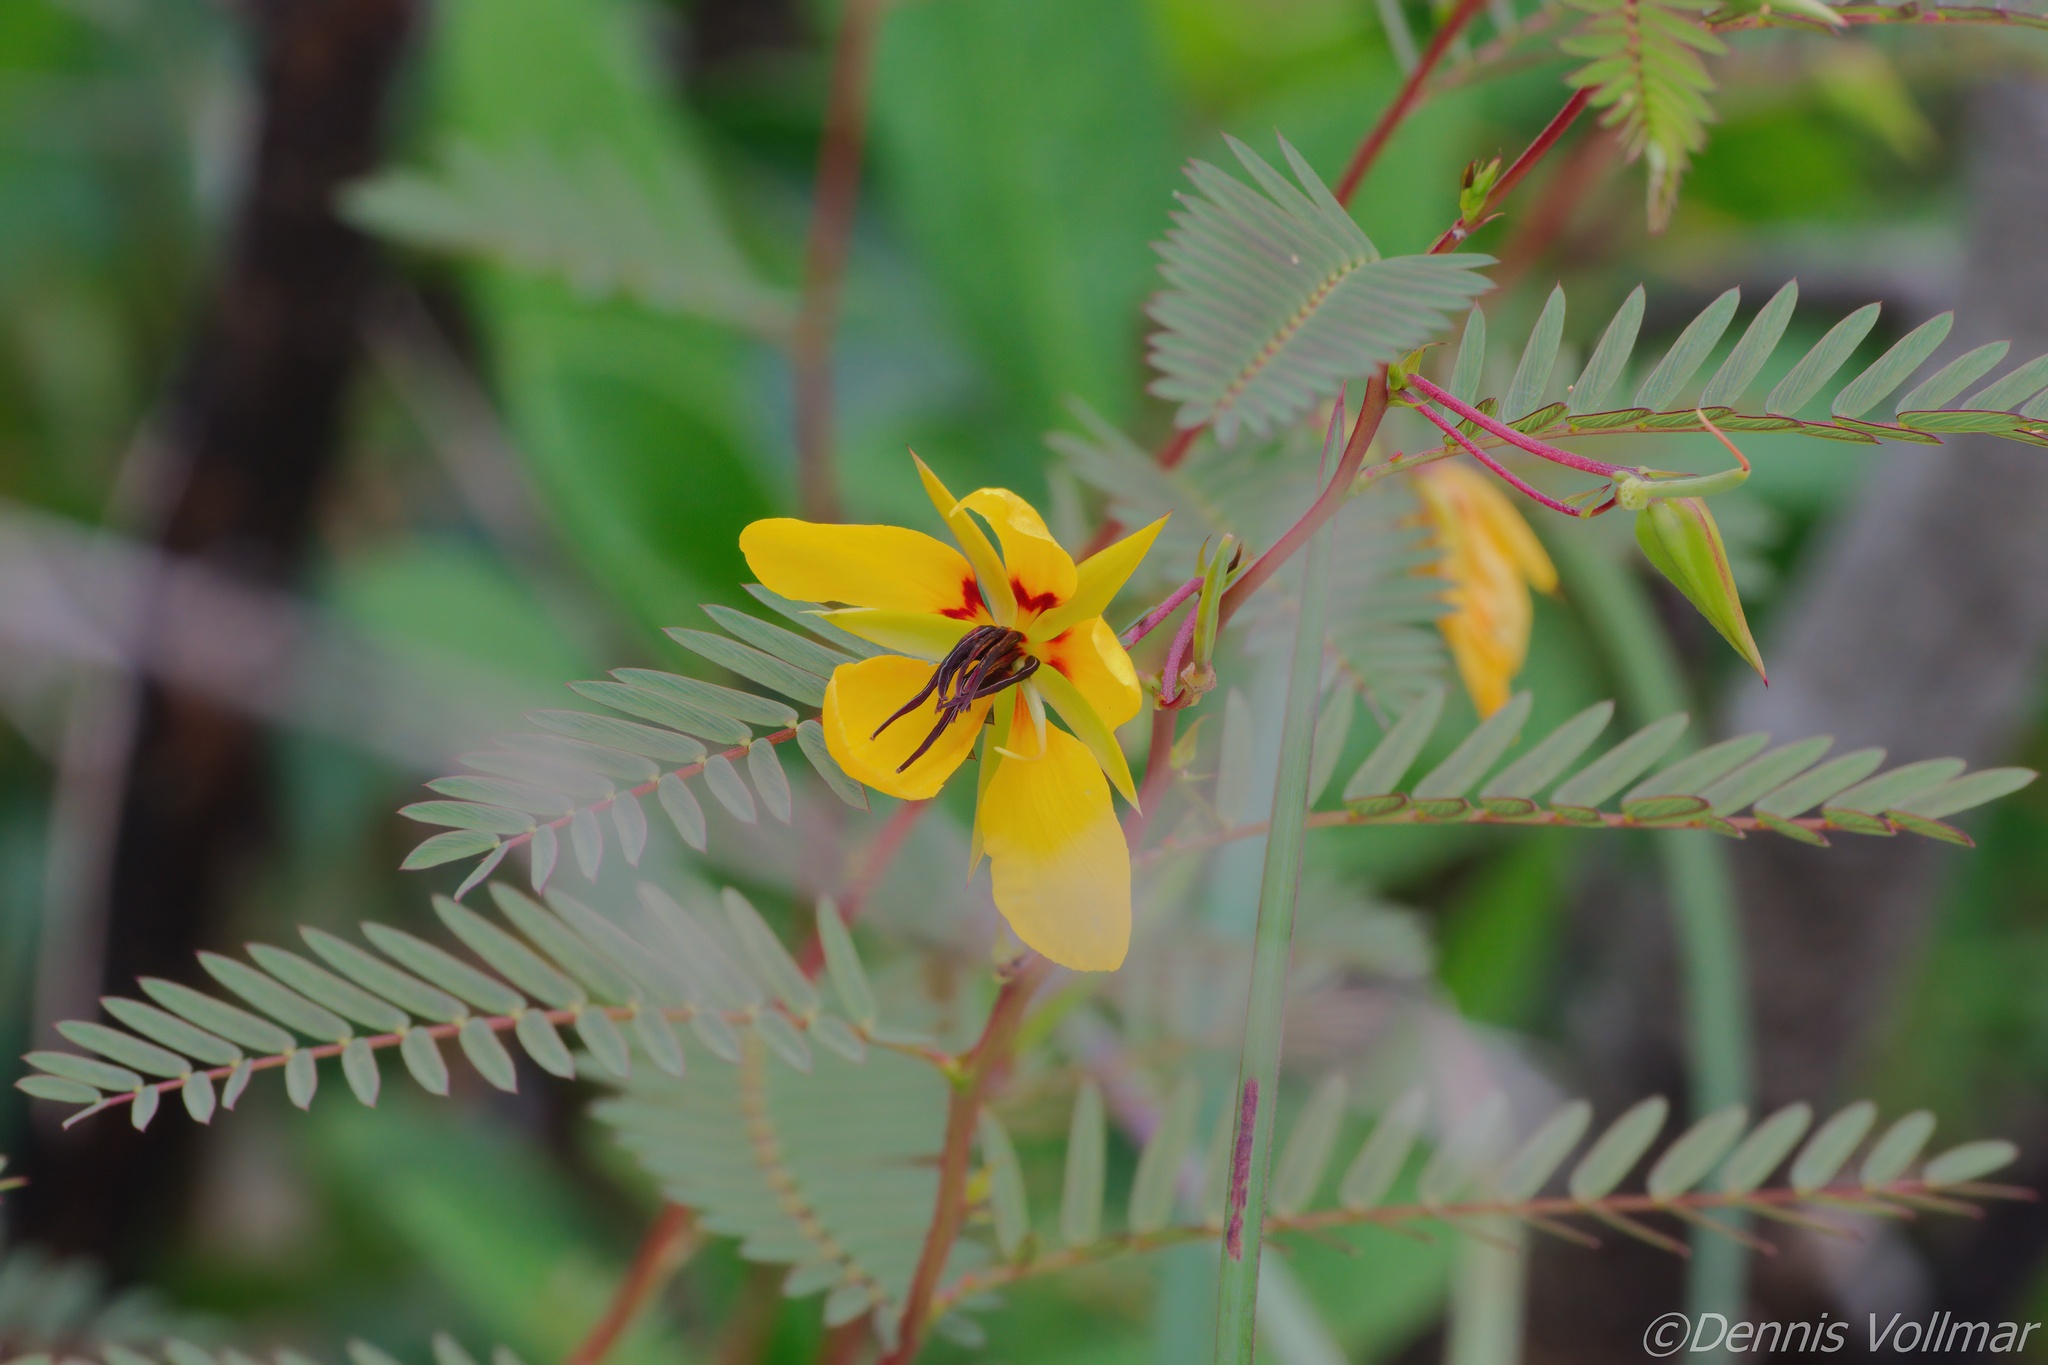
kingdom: Plantae
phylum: Tracheophyta
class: Magnoliopsida
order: Fabales
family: Fabaceae
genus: Chamaecrista
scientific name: Chamaecrista deeringiana
